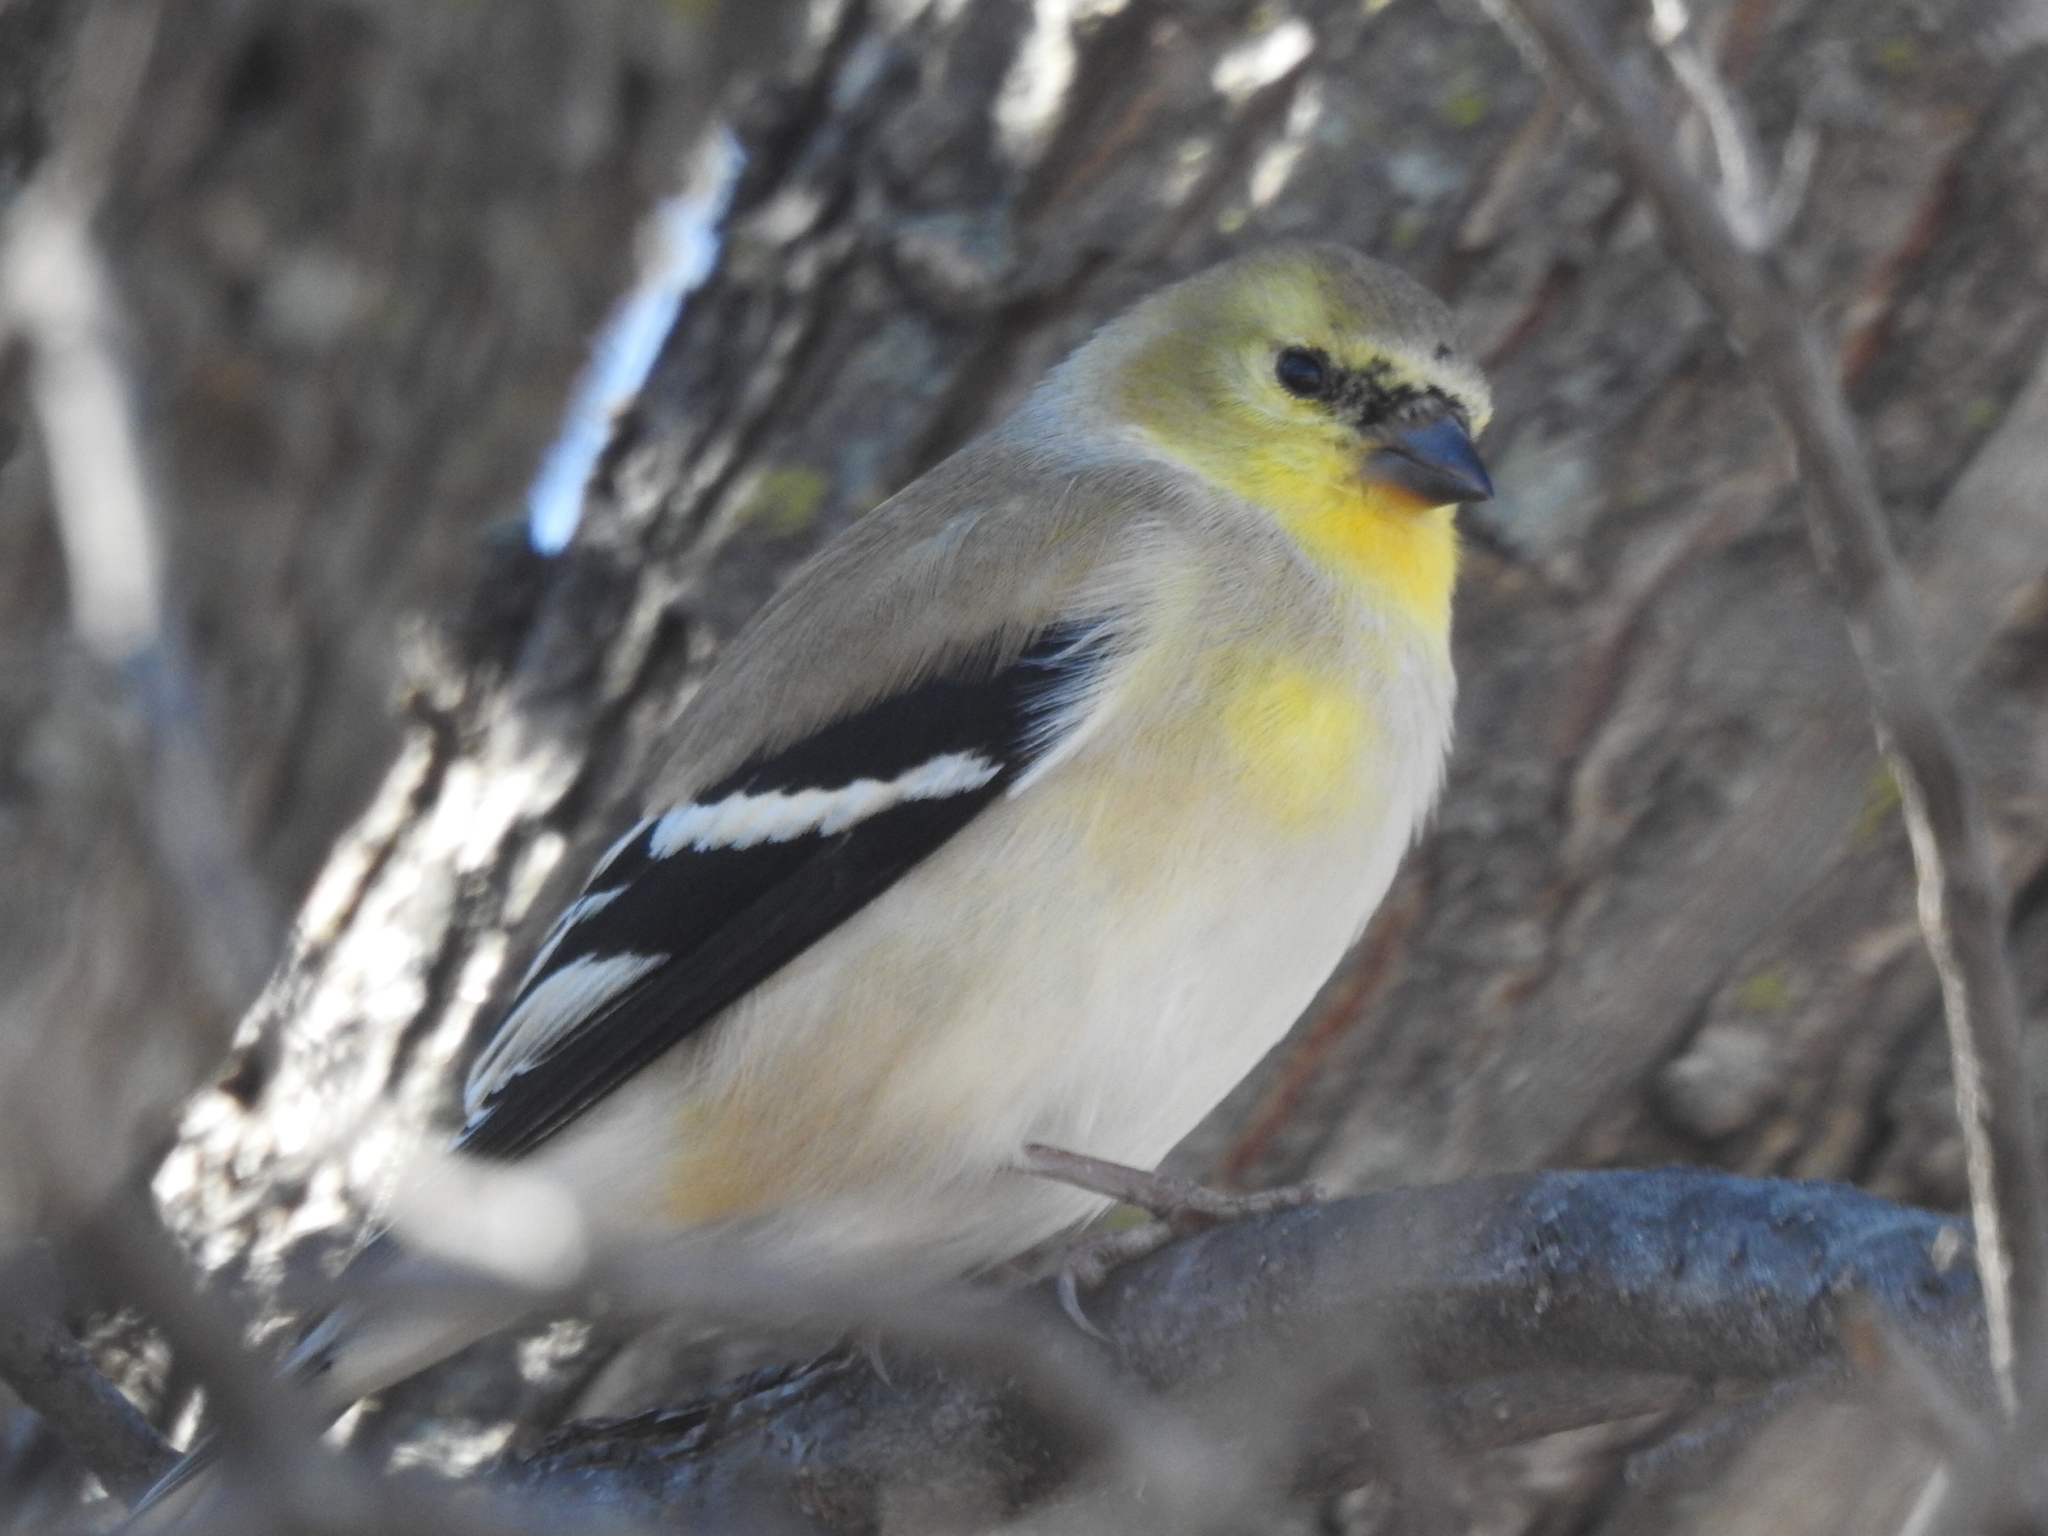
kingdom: Animalia
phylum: Chordata
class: Aves
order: Passeriformes
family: Fringillidae
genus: Spinus
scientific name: Spinus tristis
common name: American goldfinch
